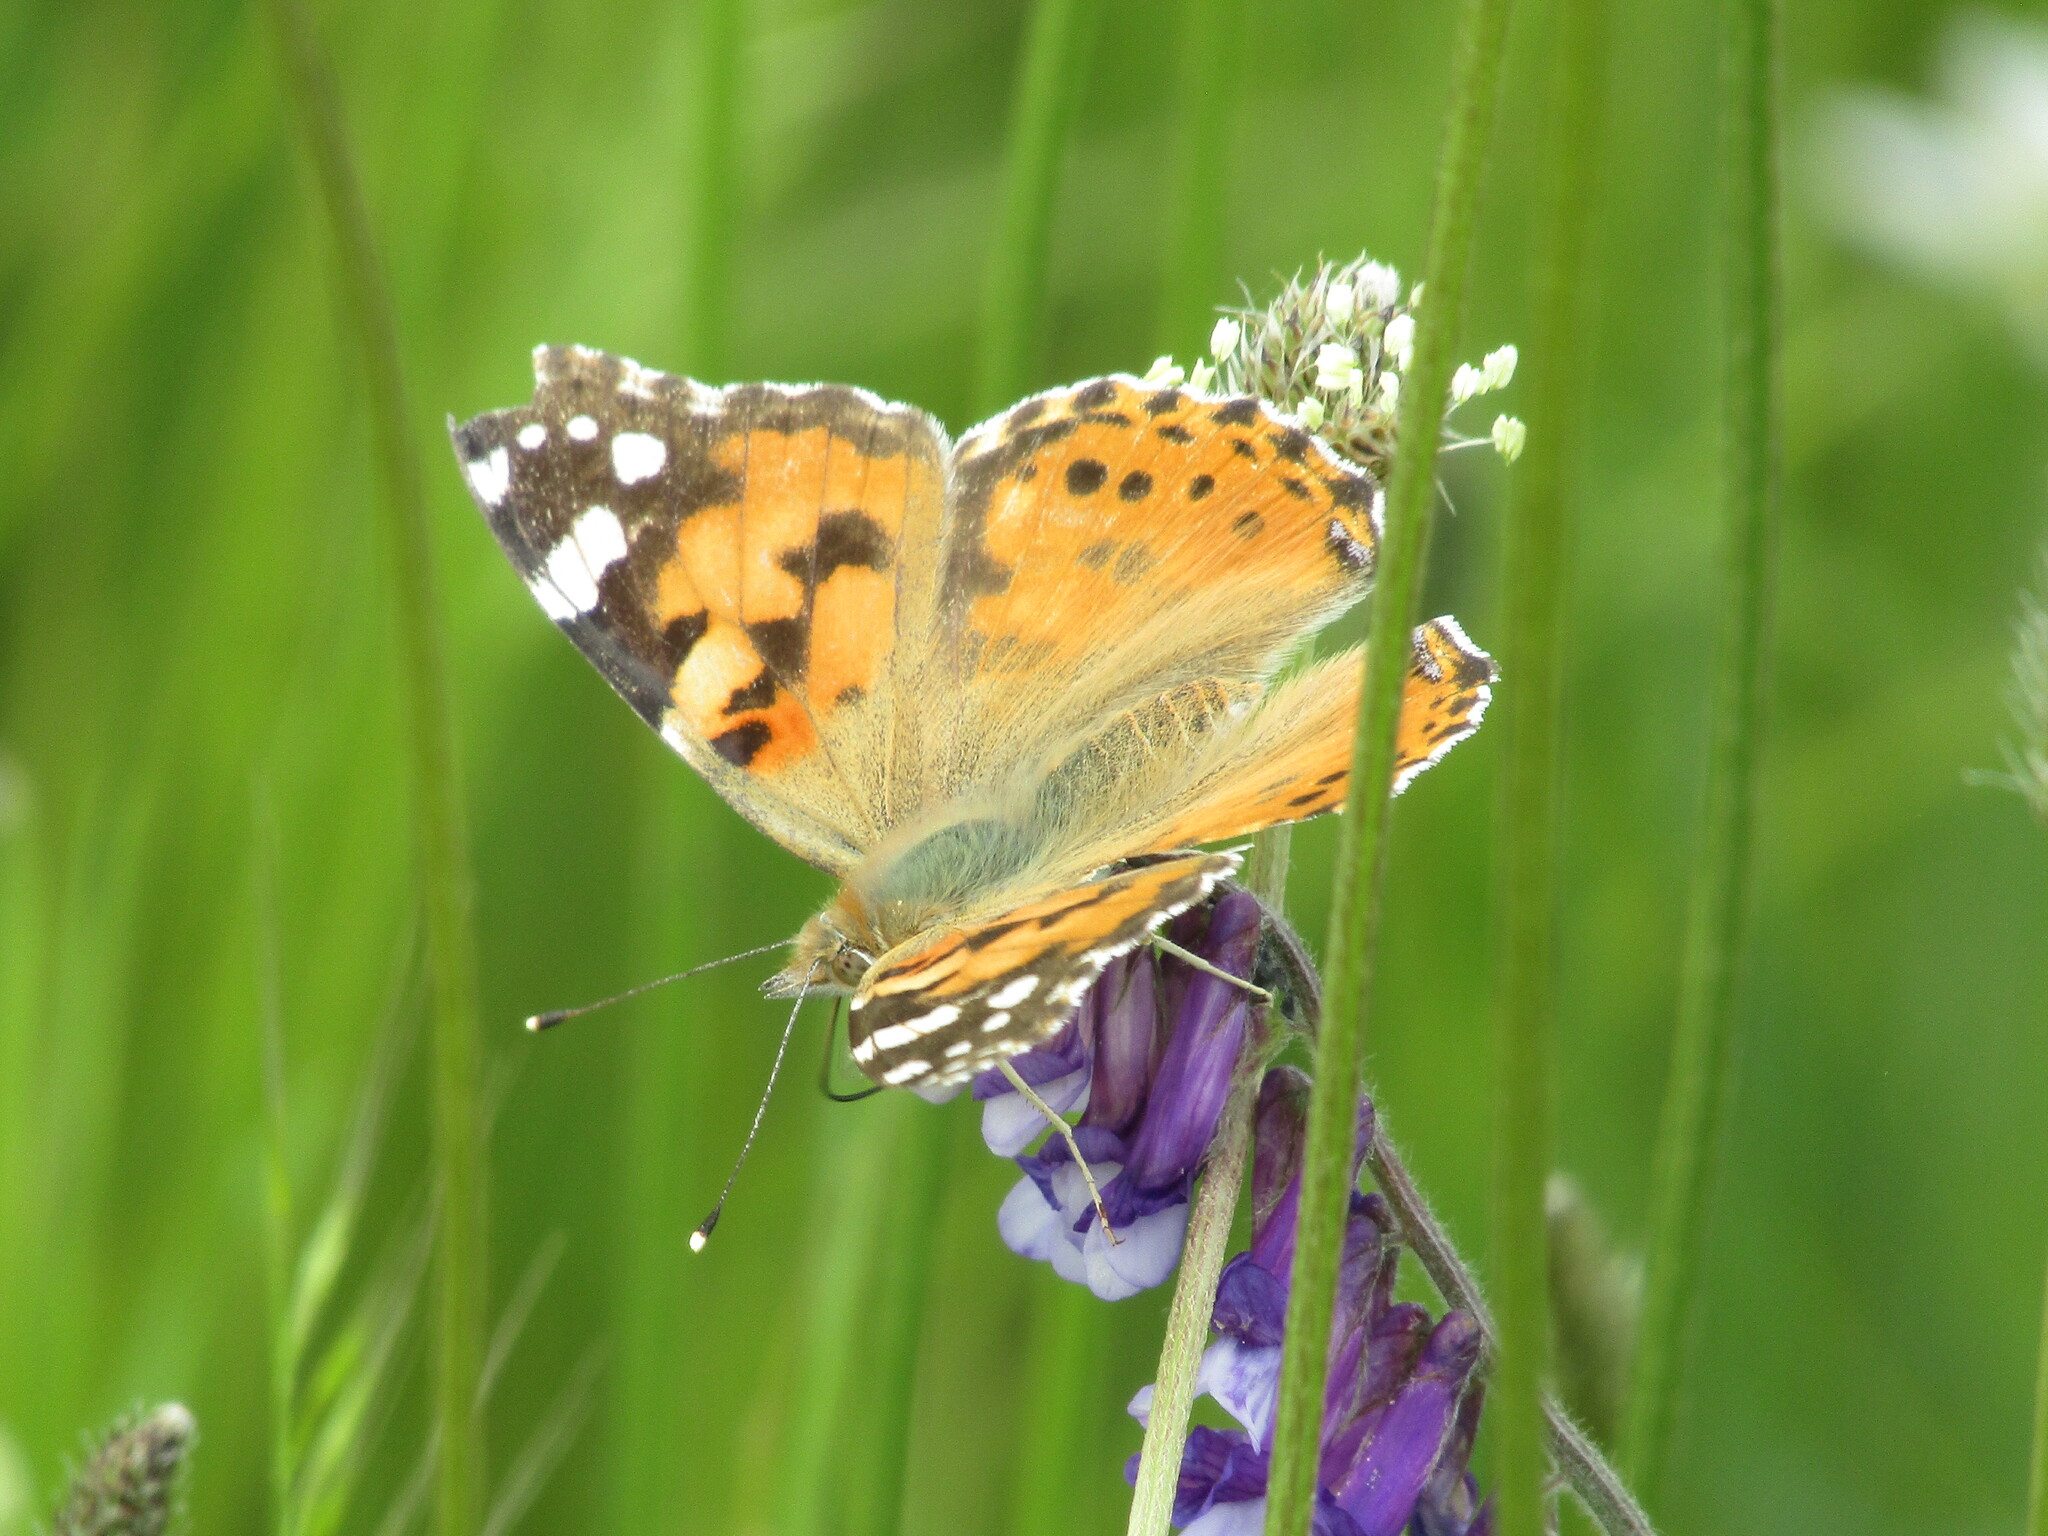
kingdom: Animalia
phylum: Arthropoda
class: Insecta
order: Lepidoptera
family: Nymphalidae
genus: Vanessa
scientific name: Vanessa cardui
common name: Painted lady
